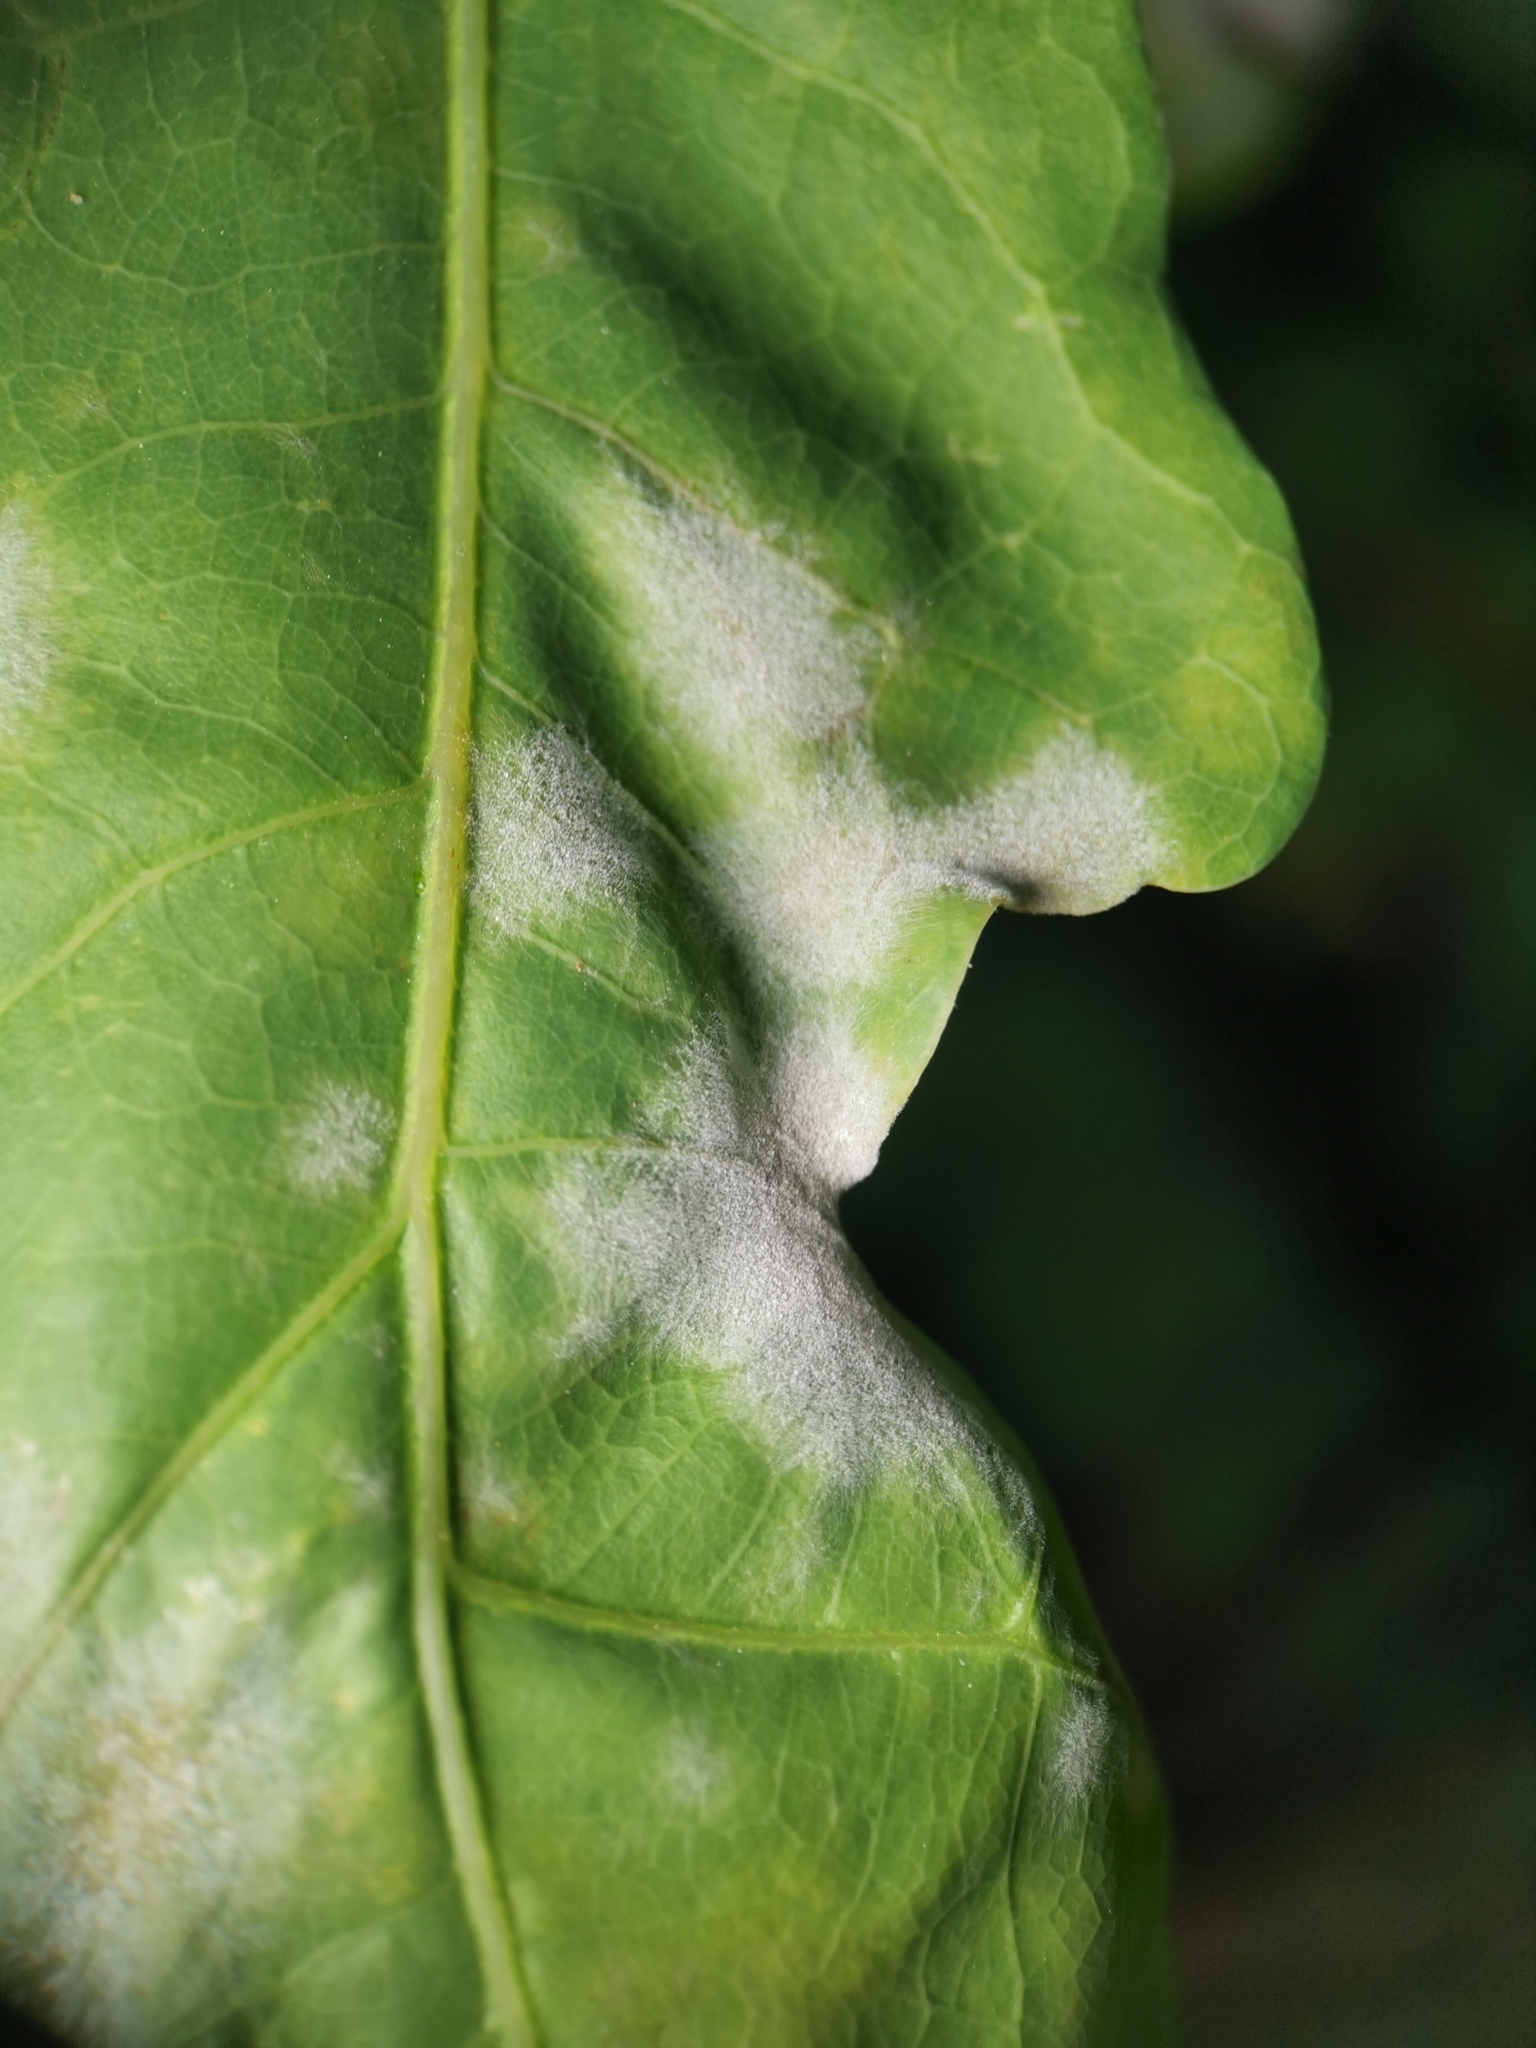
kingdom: Fungi
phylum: Ascomycota
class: Leotiomycetes
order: Helotiales
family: Erysiphaceae
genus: Erysiphe
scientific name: Erysiphe
